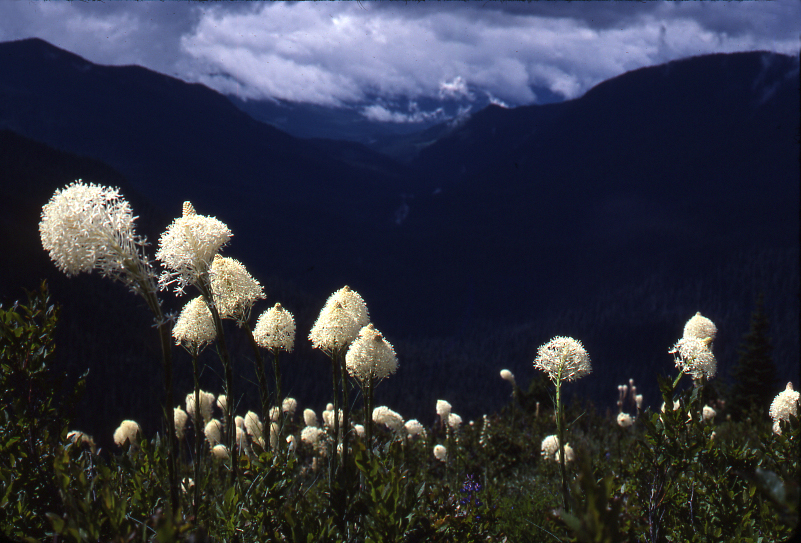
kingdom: Plantae
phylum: Tracheophyta
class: Liliopsida
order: Liliales
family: Melanthiaceae
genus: Xerophyllum
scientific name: Xerophyllum tenax
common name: Bear-grass
